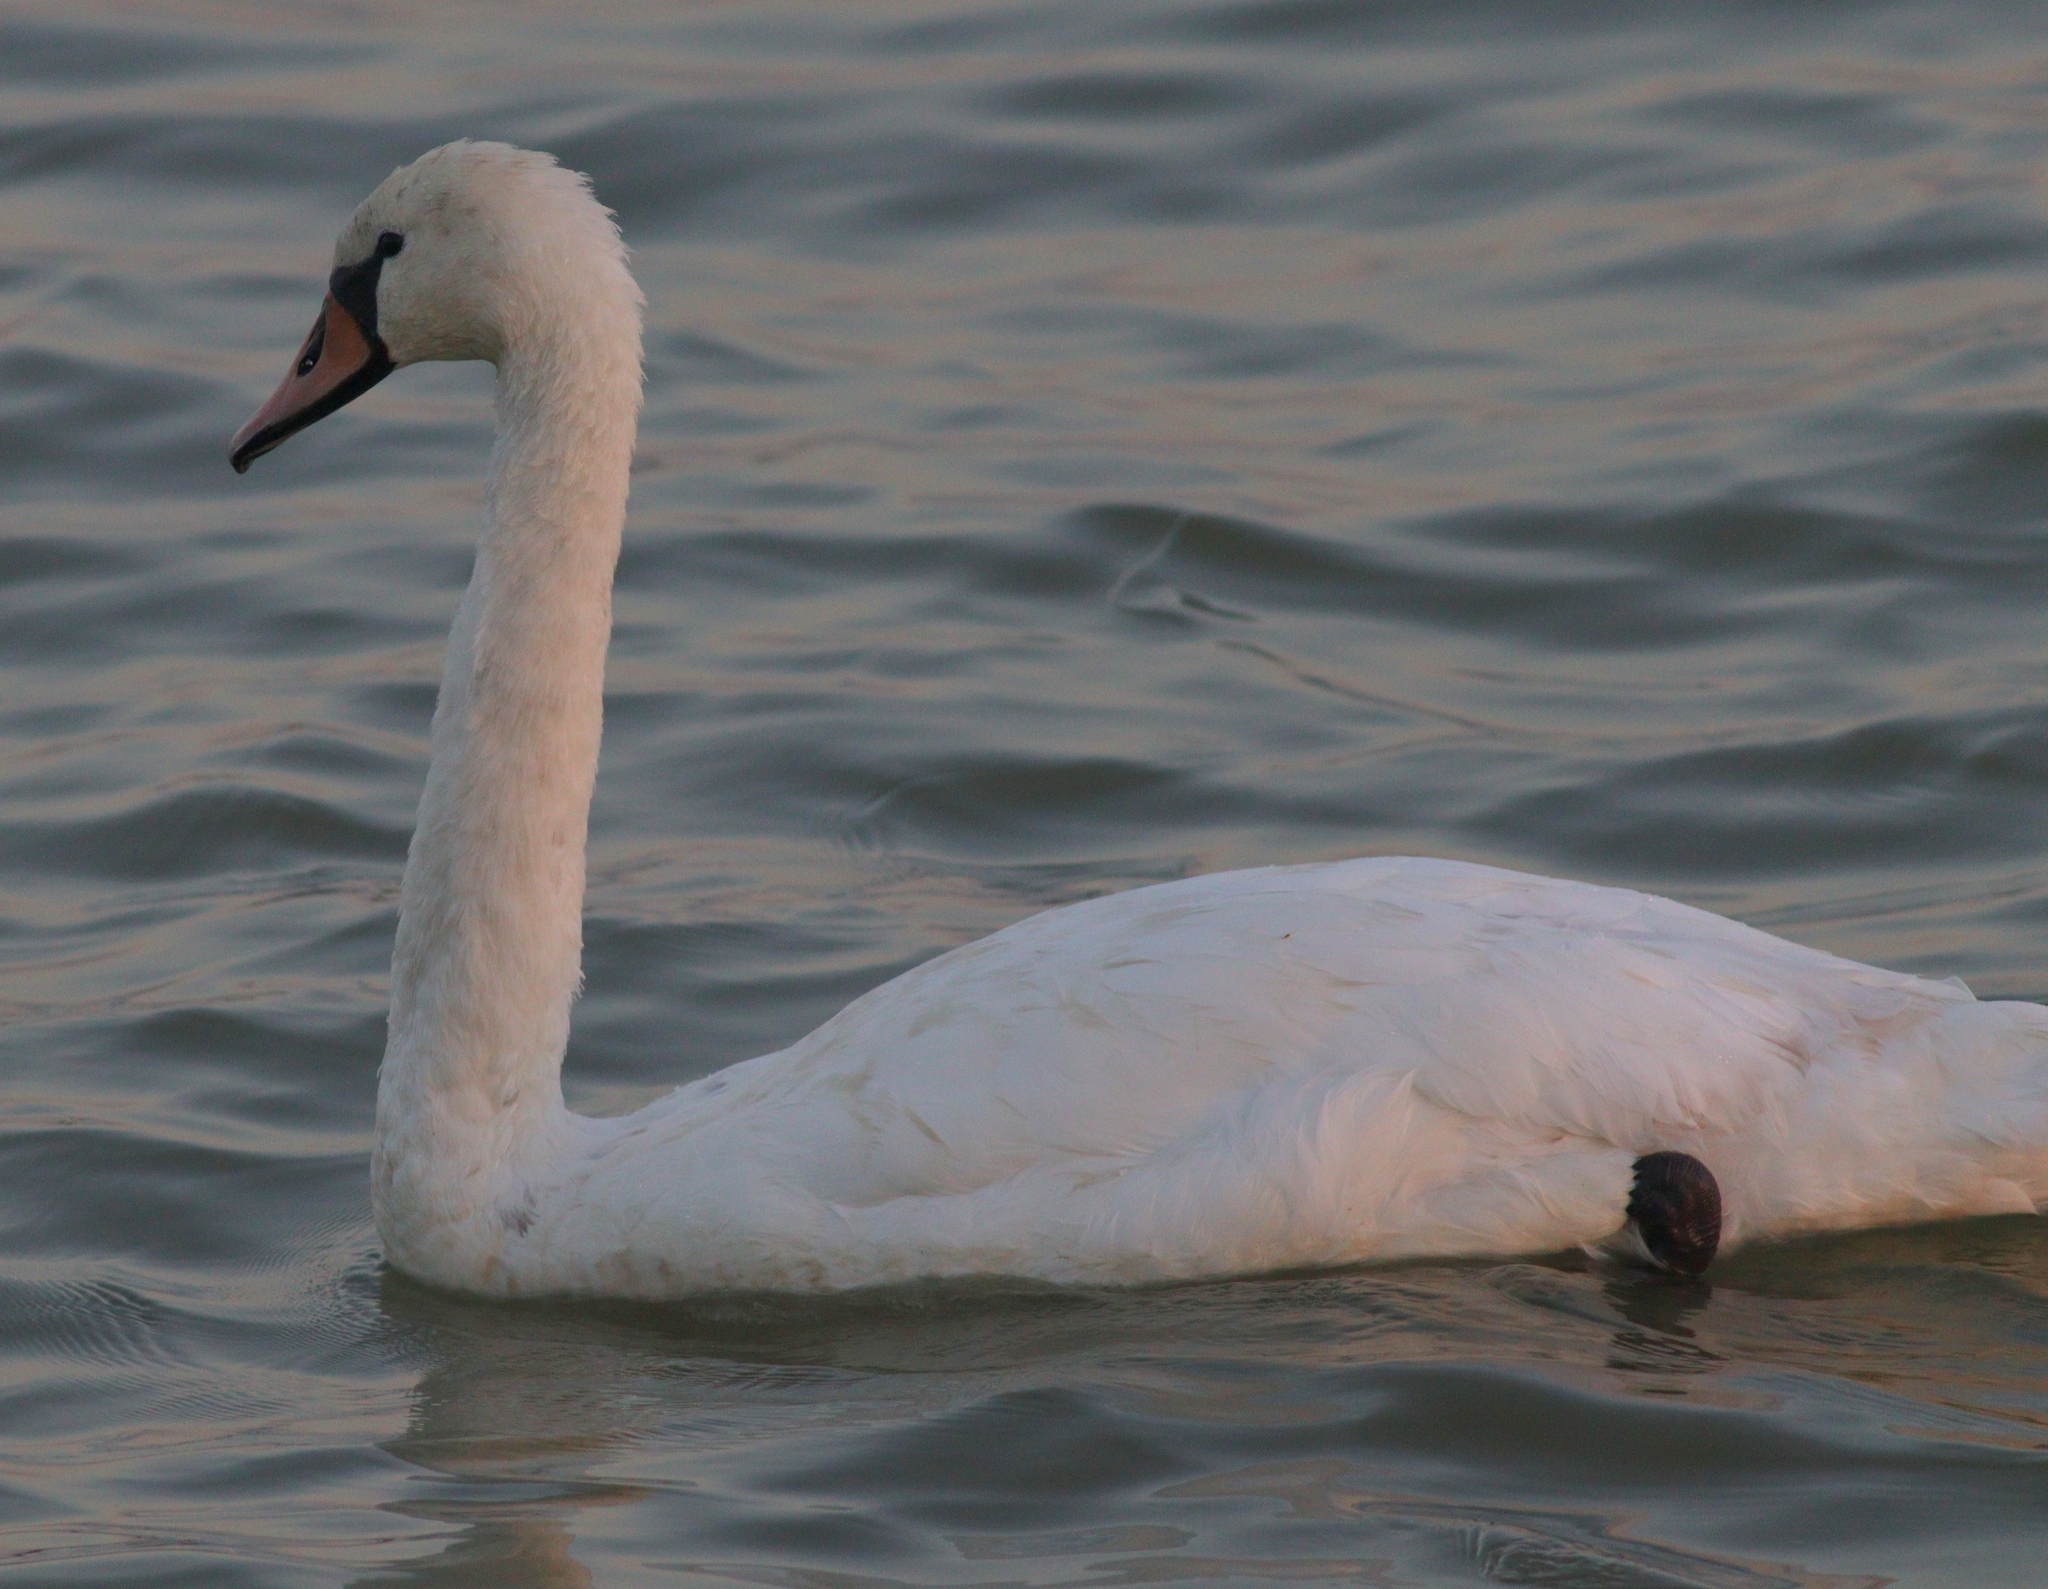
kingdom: Animalia
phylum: Chordata
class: Aves
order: Anseriformes
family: Anatidae
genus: Cygnus
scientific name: Cygnus olor
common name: Mute swan
